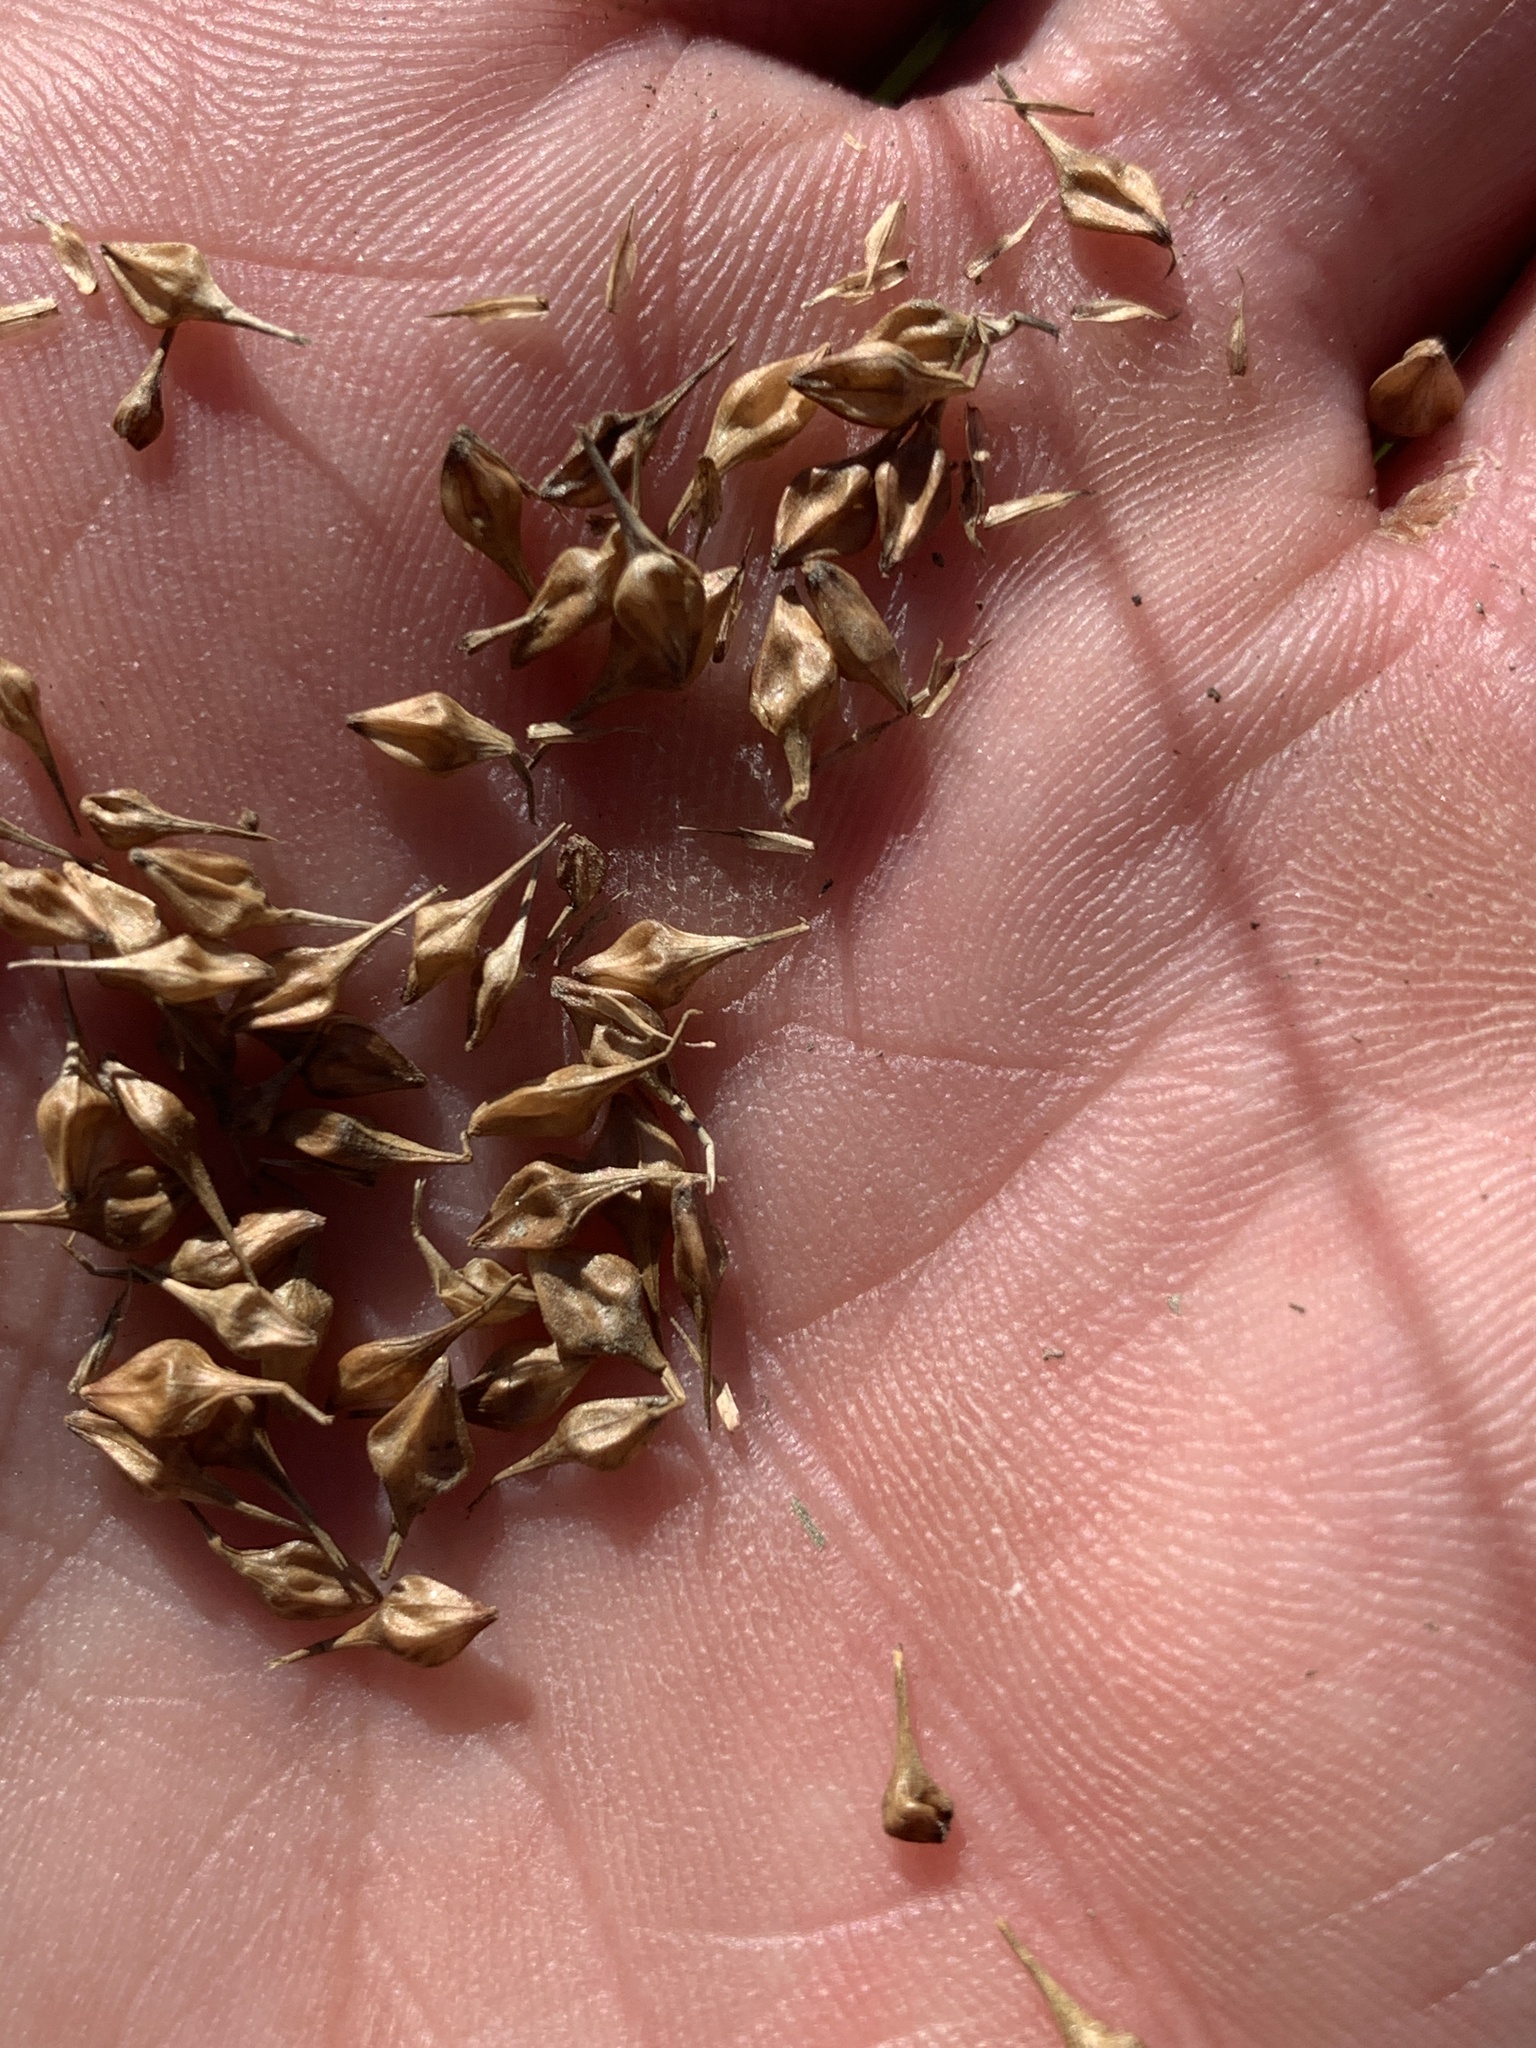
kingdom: Plantae
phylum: Tracheophyta
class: Liliopsida
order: Poales
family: Cyperaceae
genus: Carex
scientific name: Carex lurida
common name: Sallow sedge
